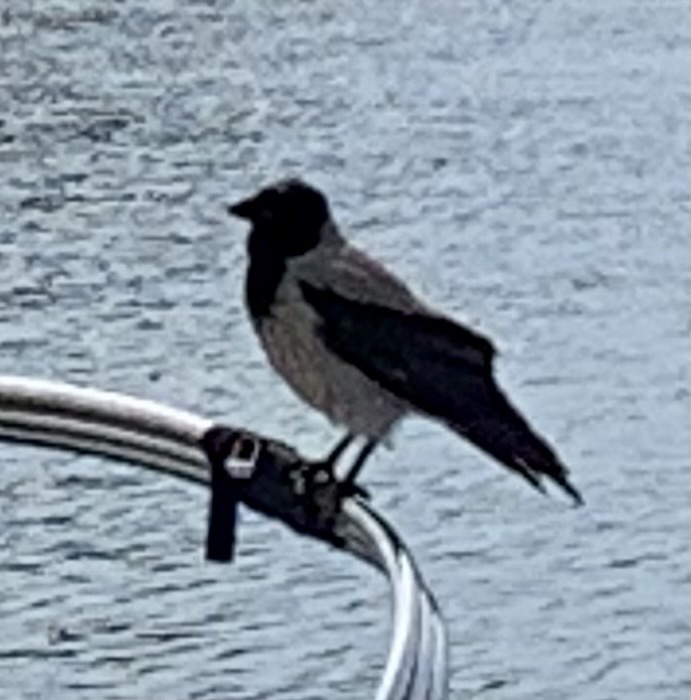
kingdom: Animalia
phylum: Chordata
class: Aves
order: Passeriformes
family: Corvidae
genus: Corvus
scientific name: Corvus cornix
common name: Hooded crow
